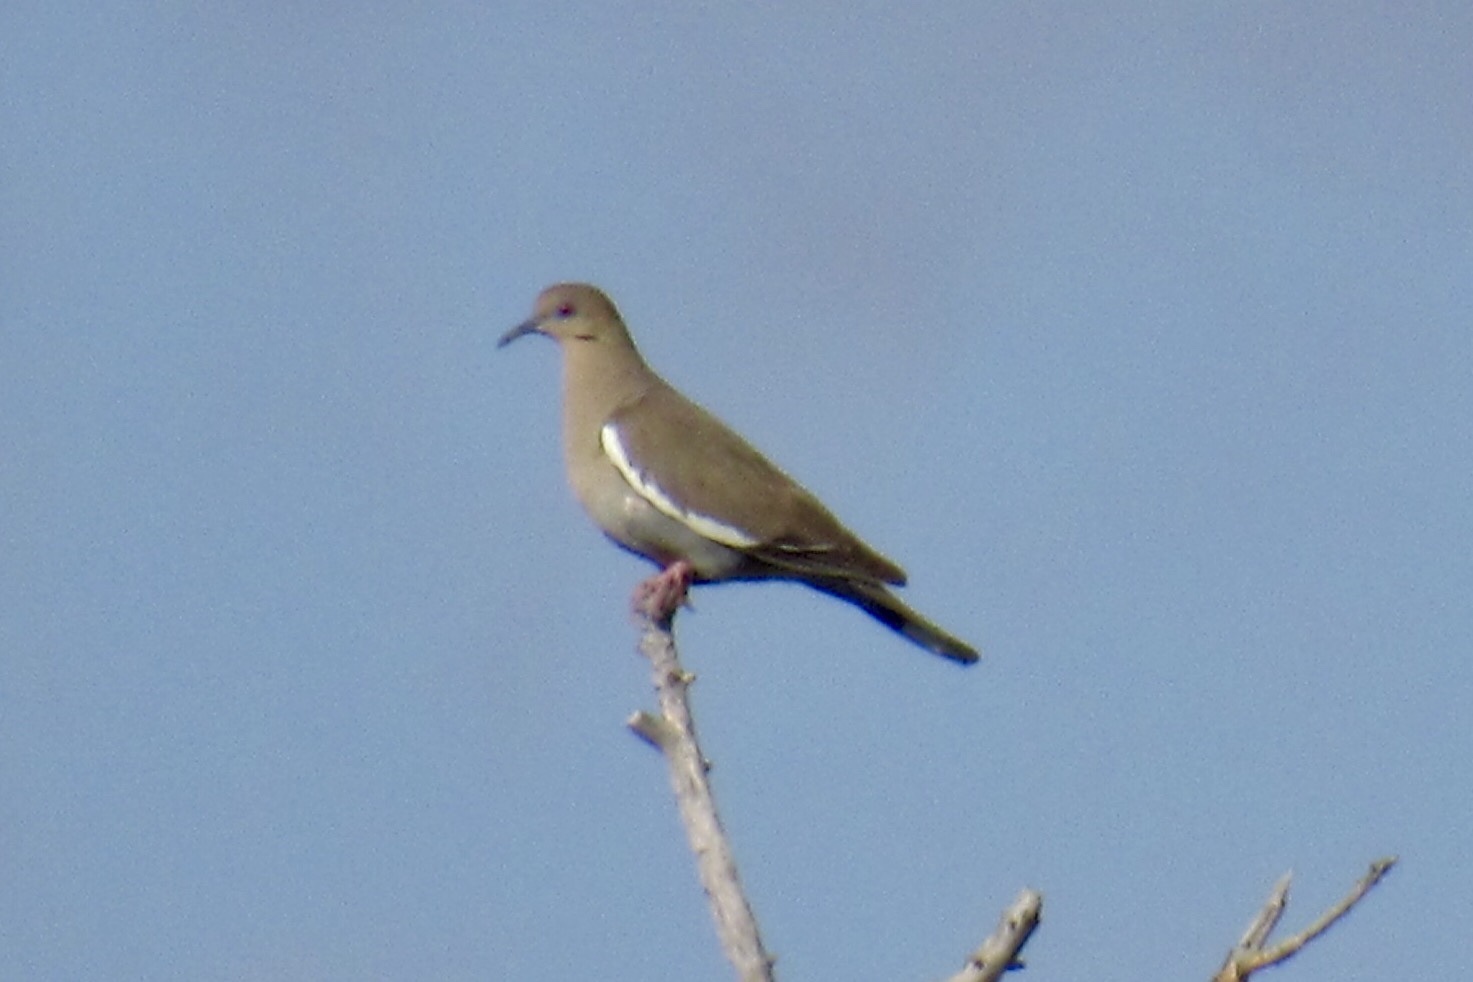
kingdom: Animalia
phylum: Chordata
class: Aves
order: Columbiformes
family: Columbidae
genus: Zenaida
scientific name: Zenaida asiatica
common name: White-winged dove
